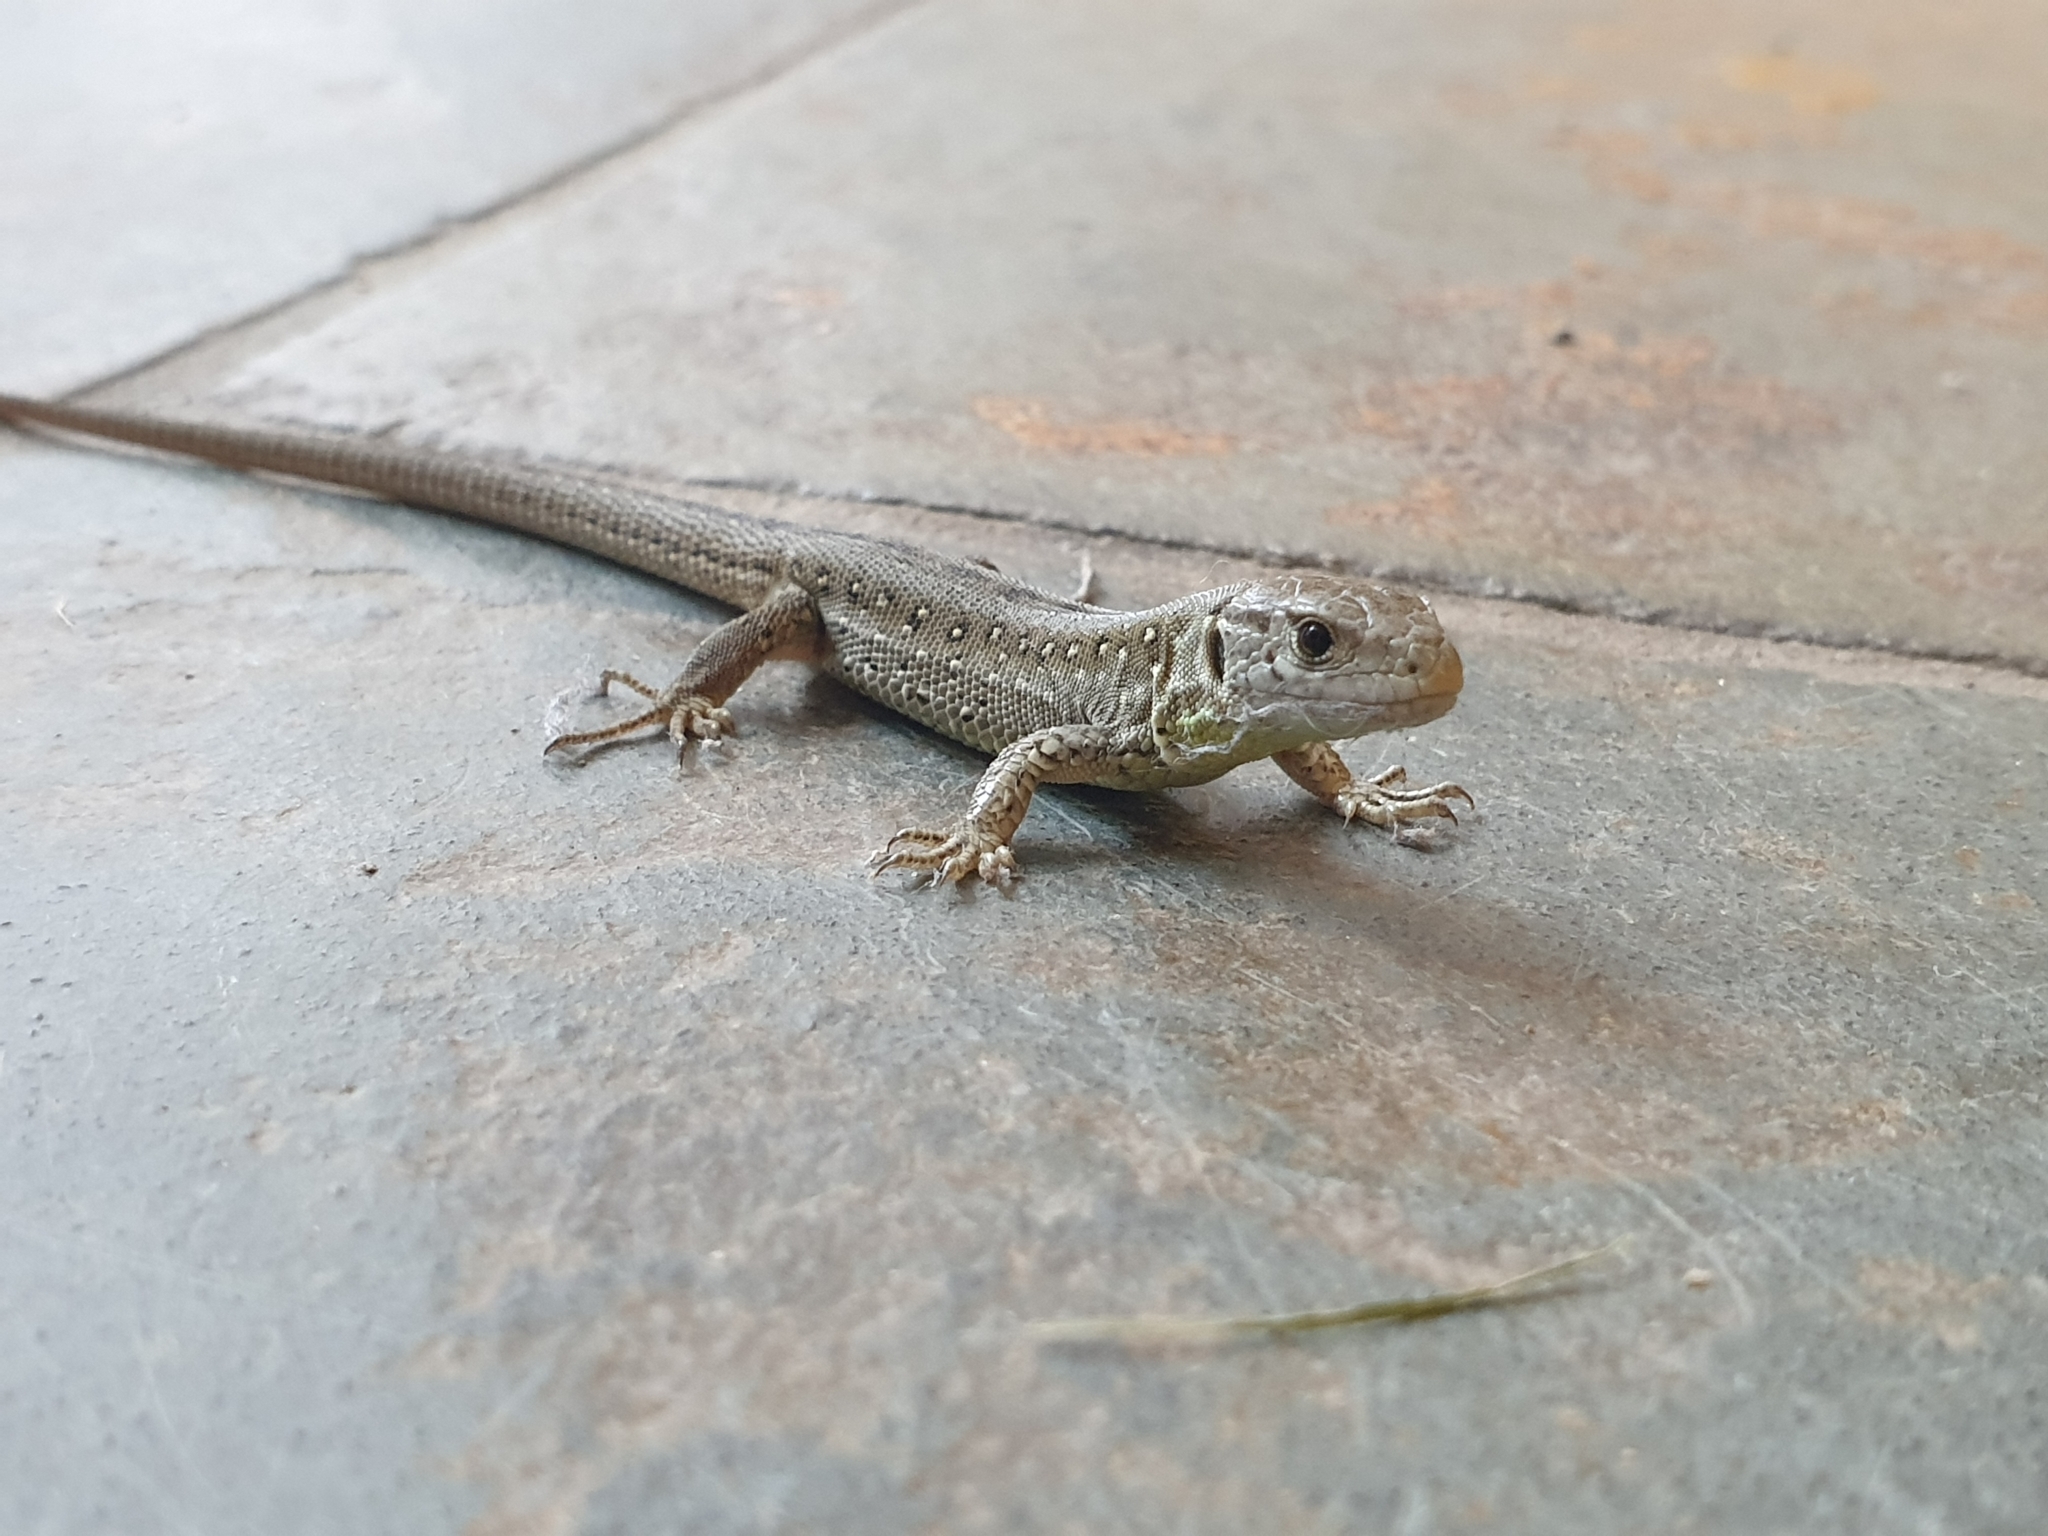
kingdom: Animalia
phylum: Chordata
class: Squamata
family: Lacertidae
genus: Lacerta
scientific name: Lacerta agilis
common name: Sand lizard
